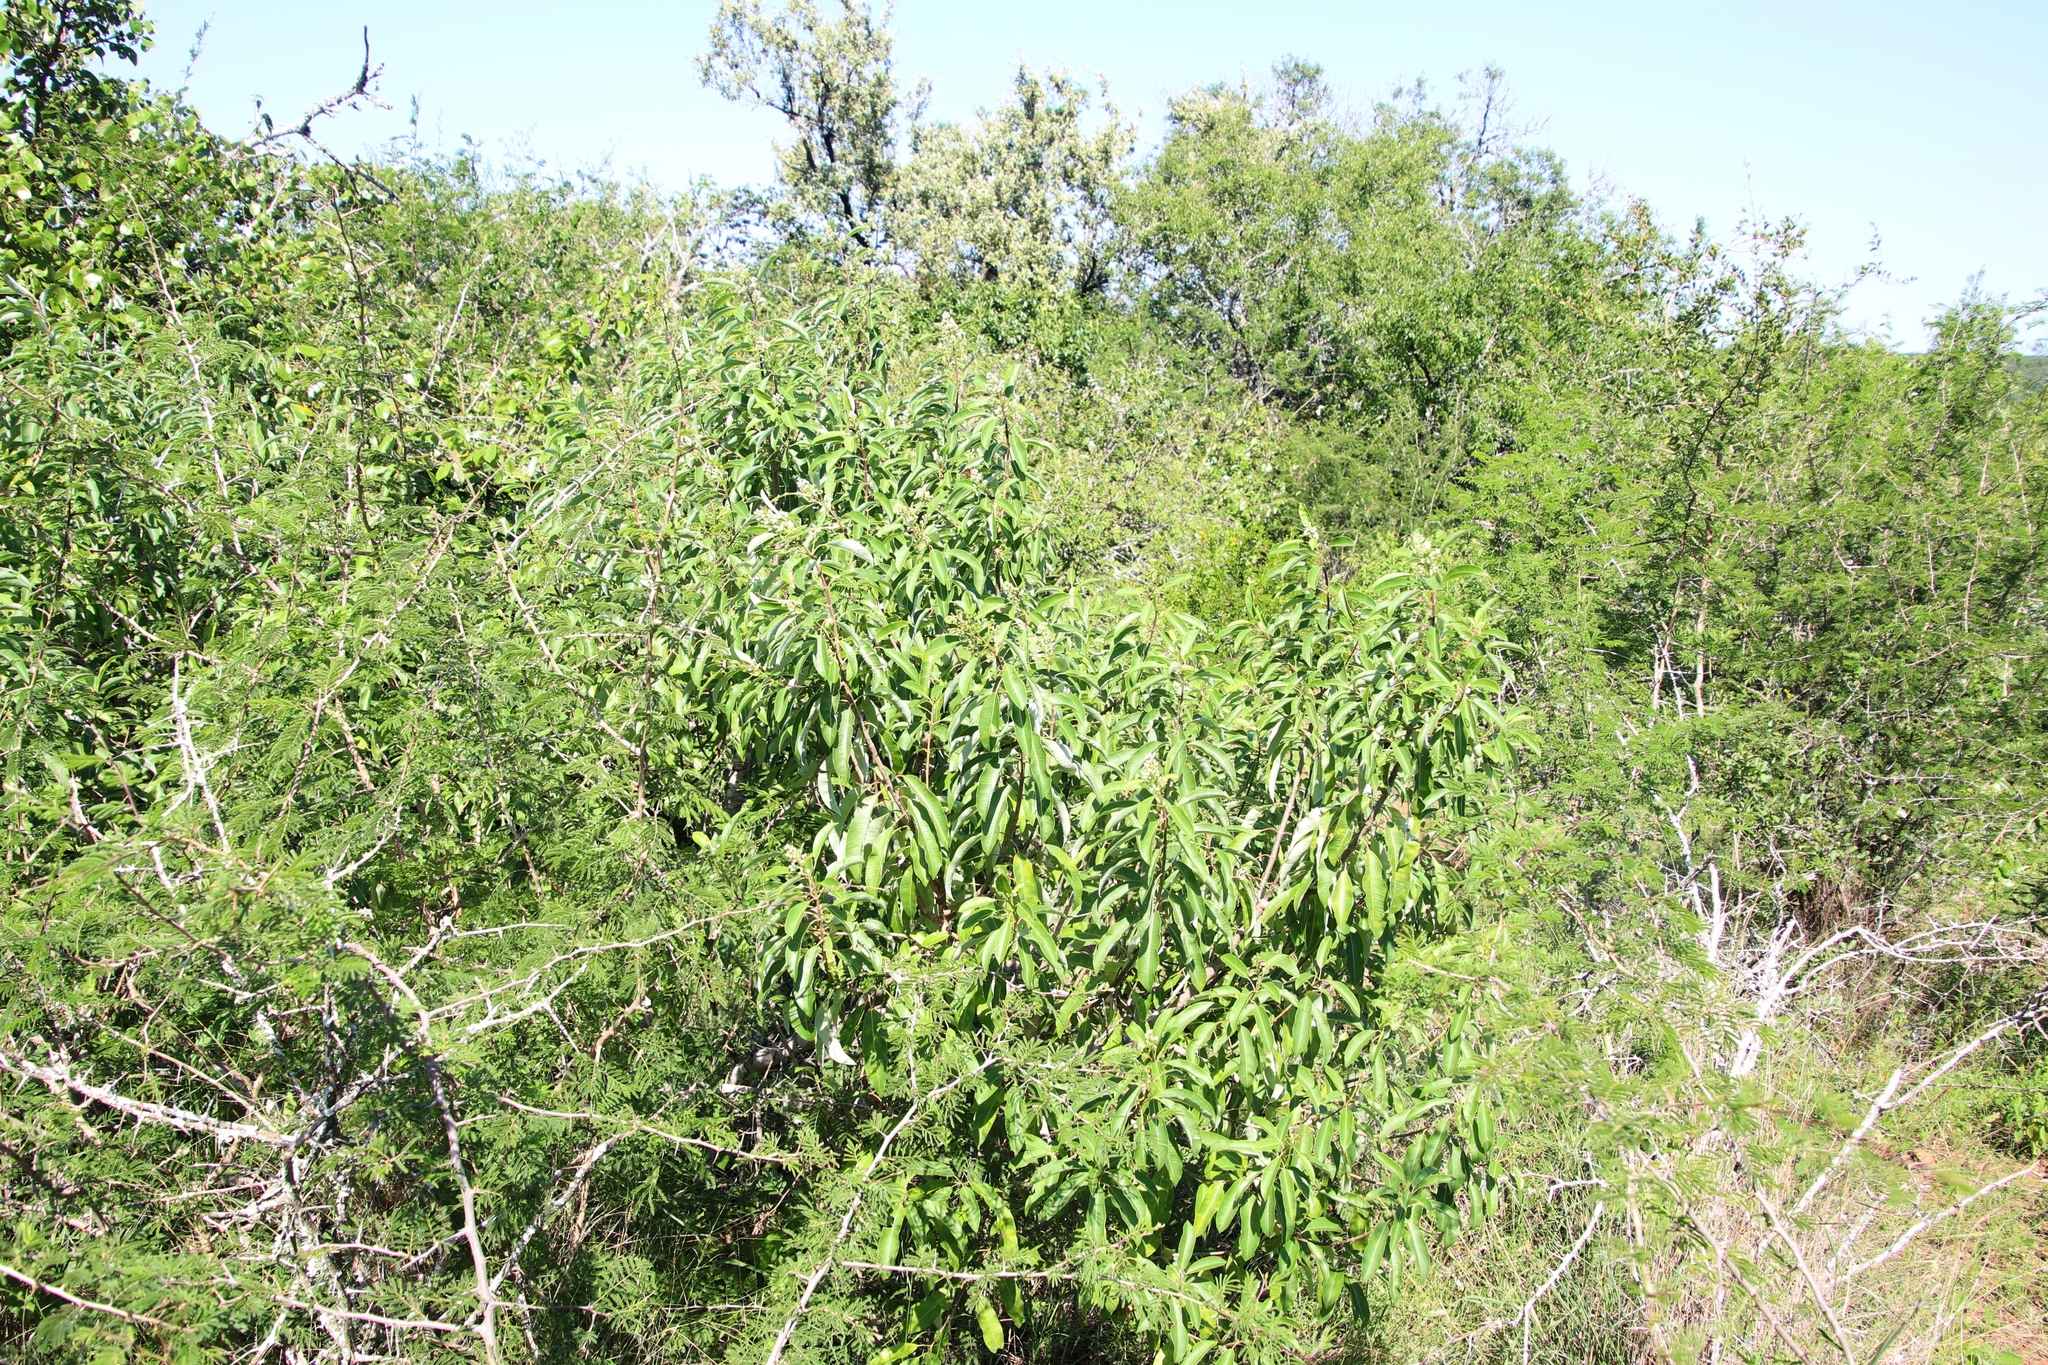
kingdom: Plantae
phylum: Tracheophyta
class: Magnoliopsida
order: Sapindales
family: Anacardiaceae
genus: Ozoroa
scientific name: Ozoroa engleri
